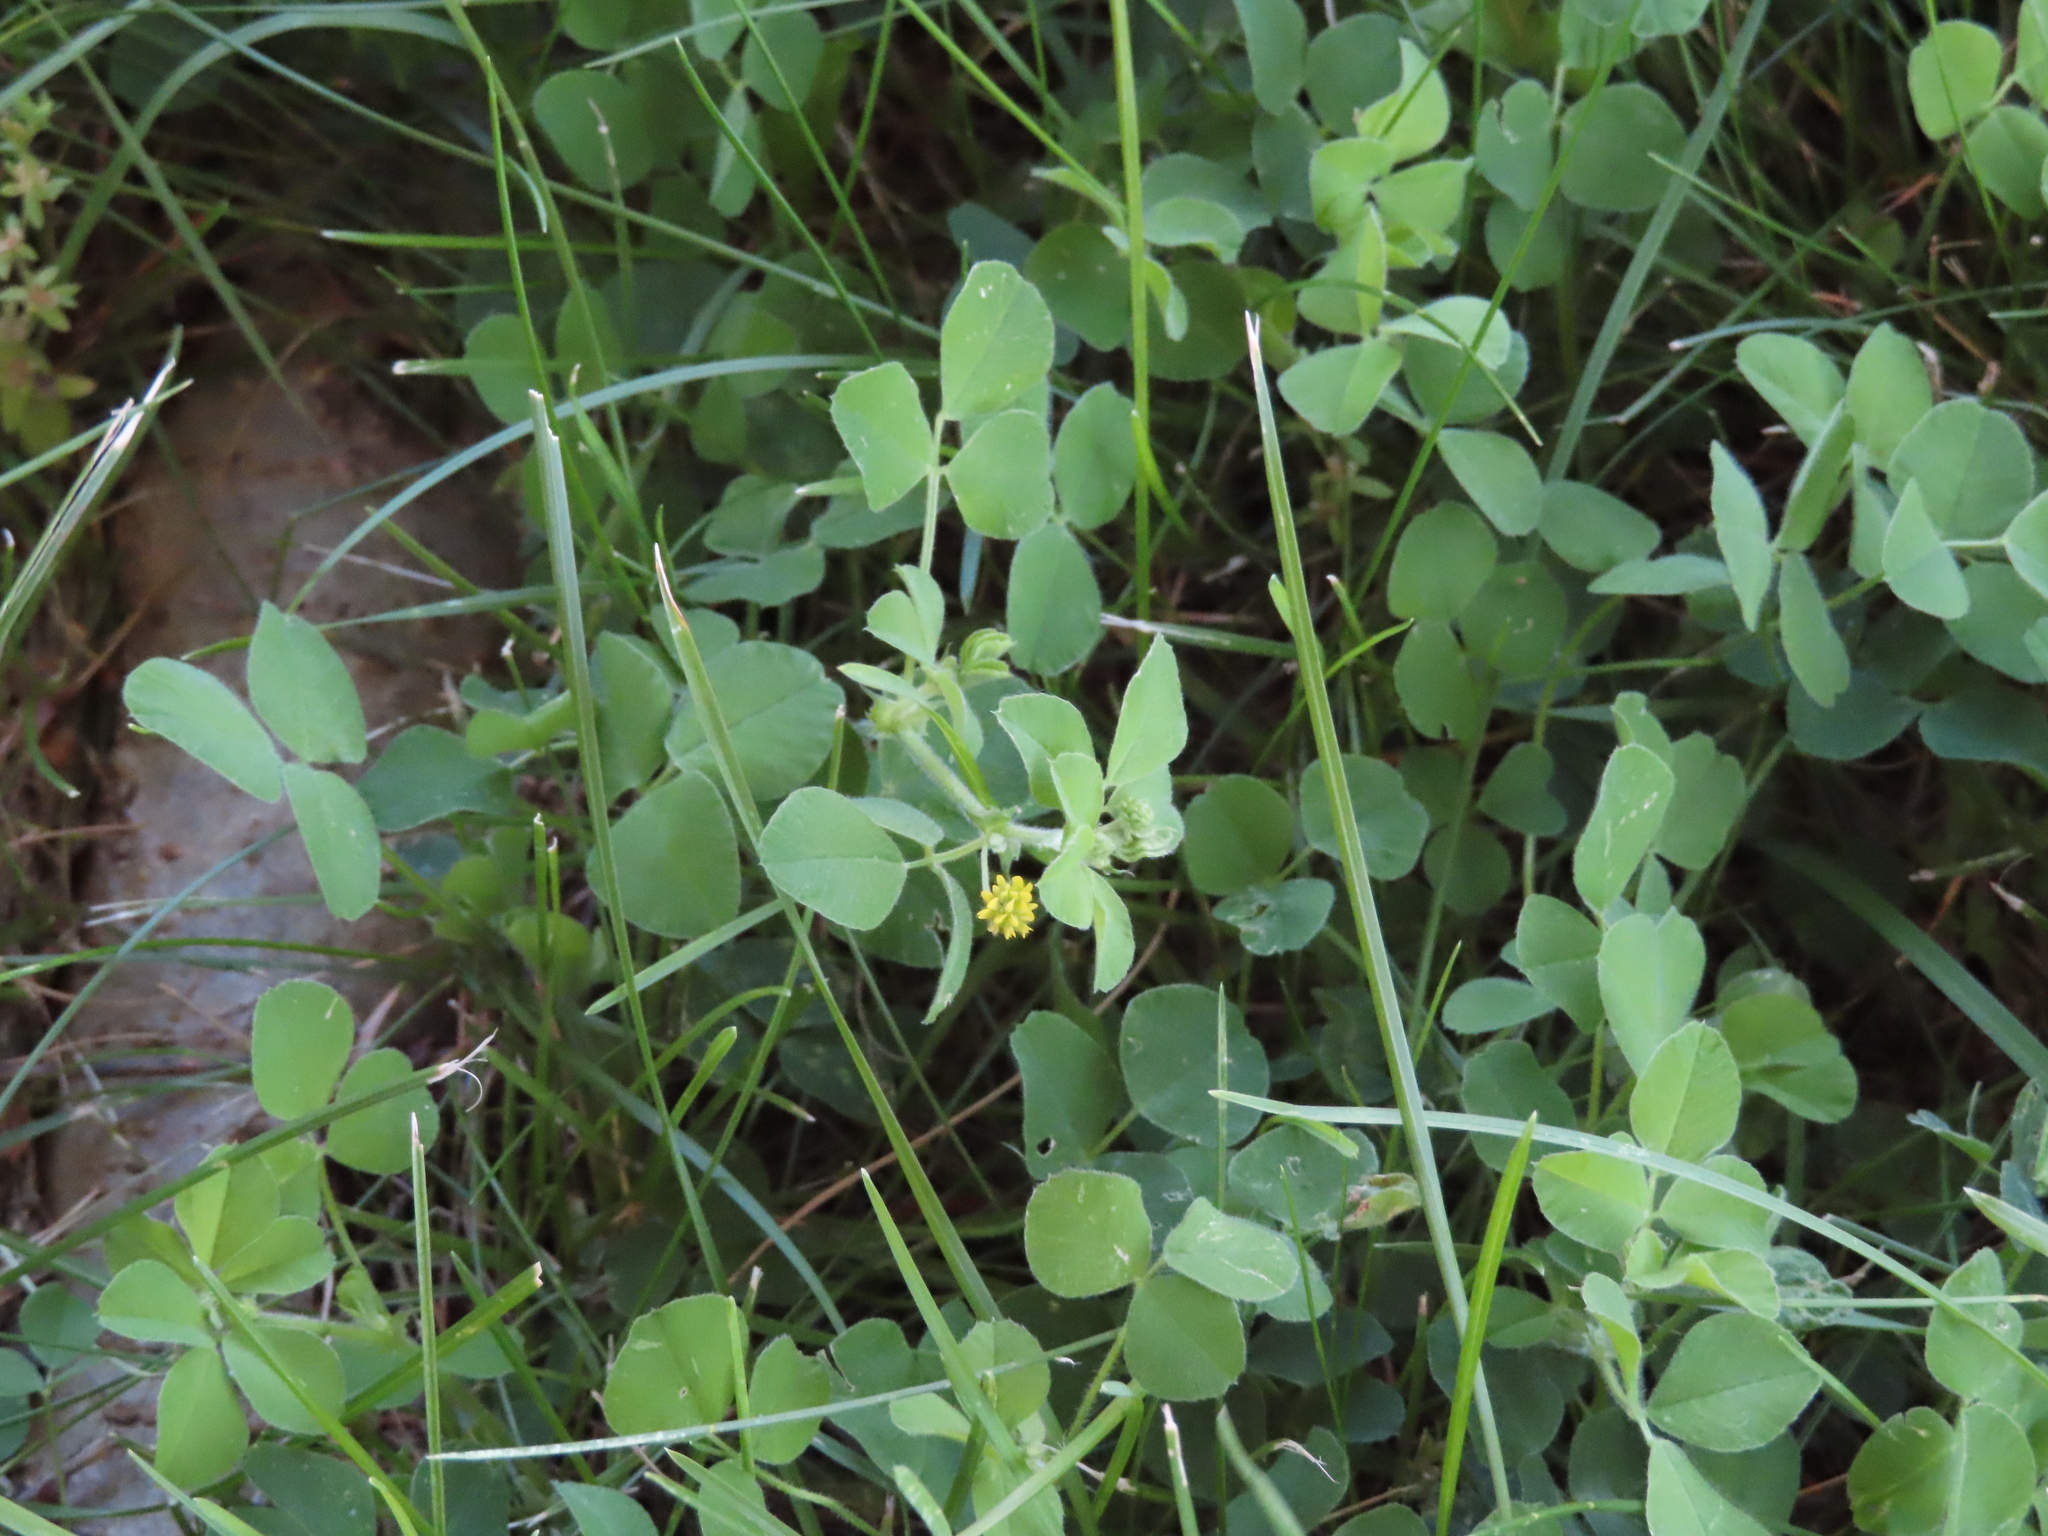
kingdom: Plantae
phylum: Tracheophyta
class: Magnoliopsida
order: Fabales
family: Fabaceae
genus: Medicago
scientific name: Medicago lupulina
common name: Black medick
